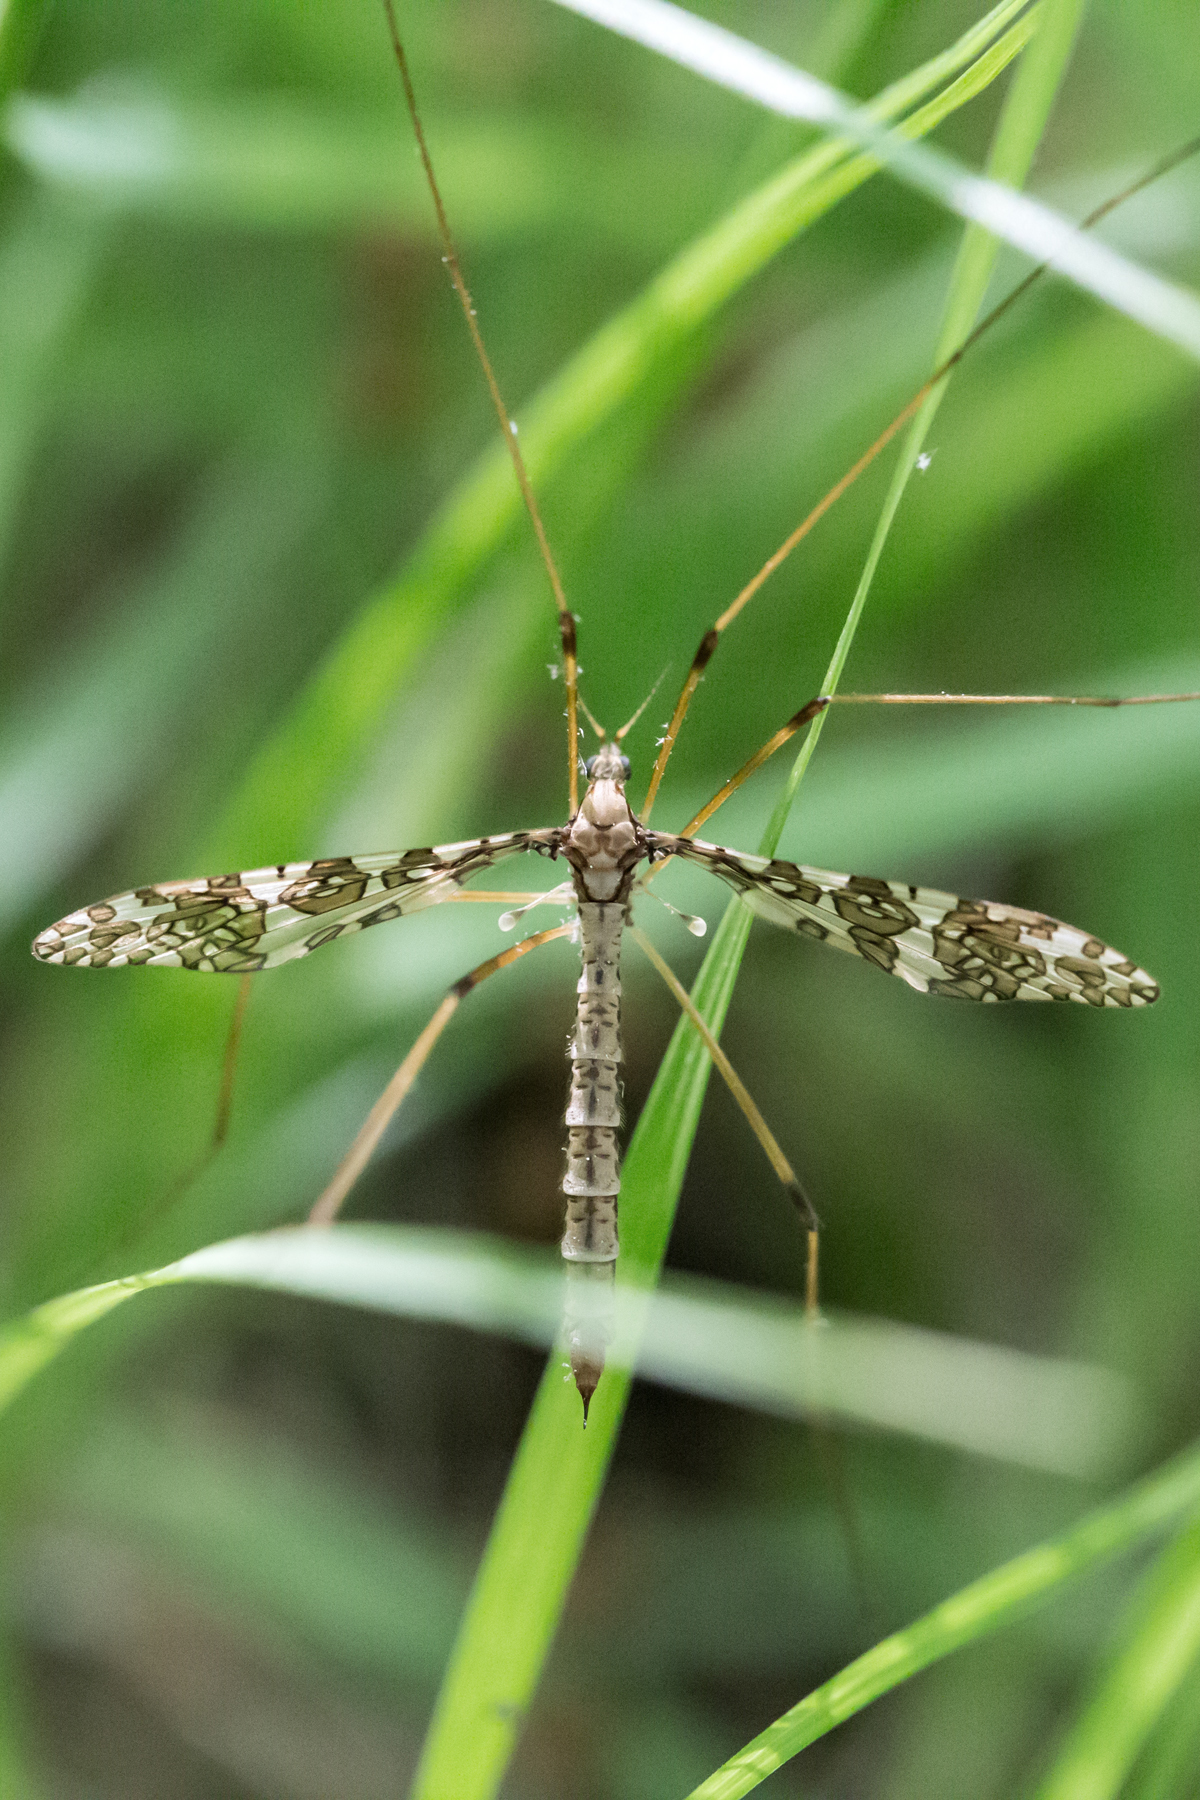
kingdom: Animalia
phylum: Arthropoda
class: Insecta
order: Diptera
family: Limoniidae
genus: Epiphragma
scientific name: Epiphragma fasciapenne
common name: Band-winged crane fly
